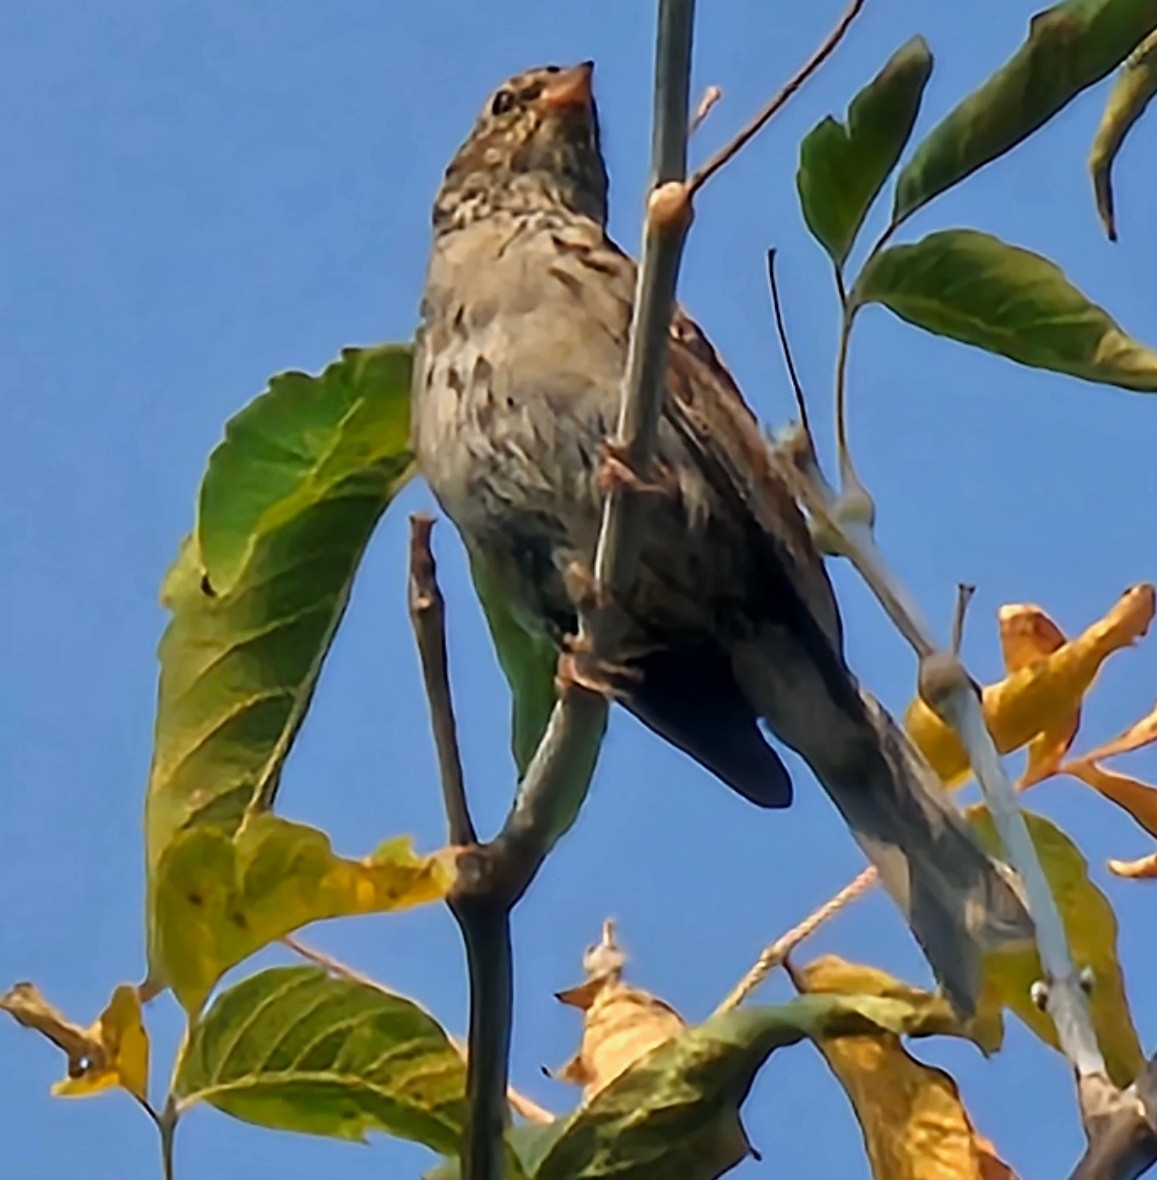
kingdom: Animalia
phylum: Chordata
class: Aves
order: Passeriformes
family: Passerellidae
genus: Spizella
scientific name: Spizella passerina
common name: Chipping sparrow
